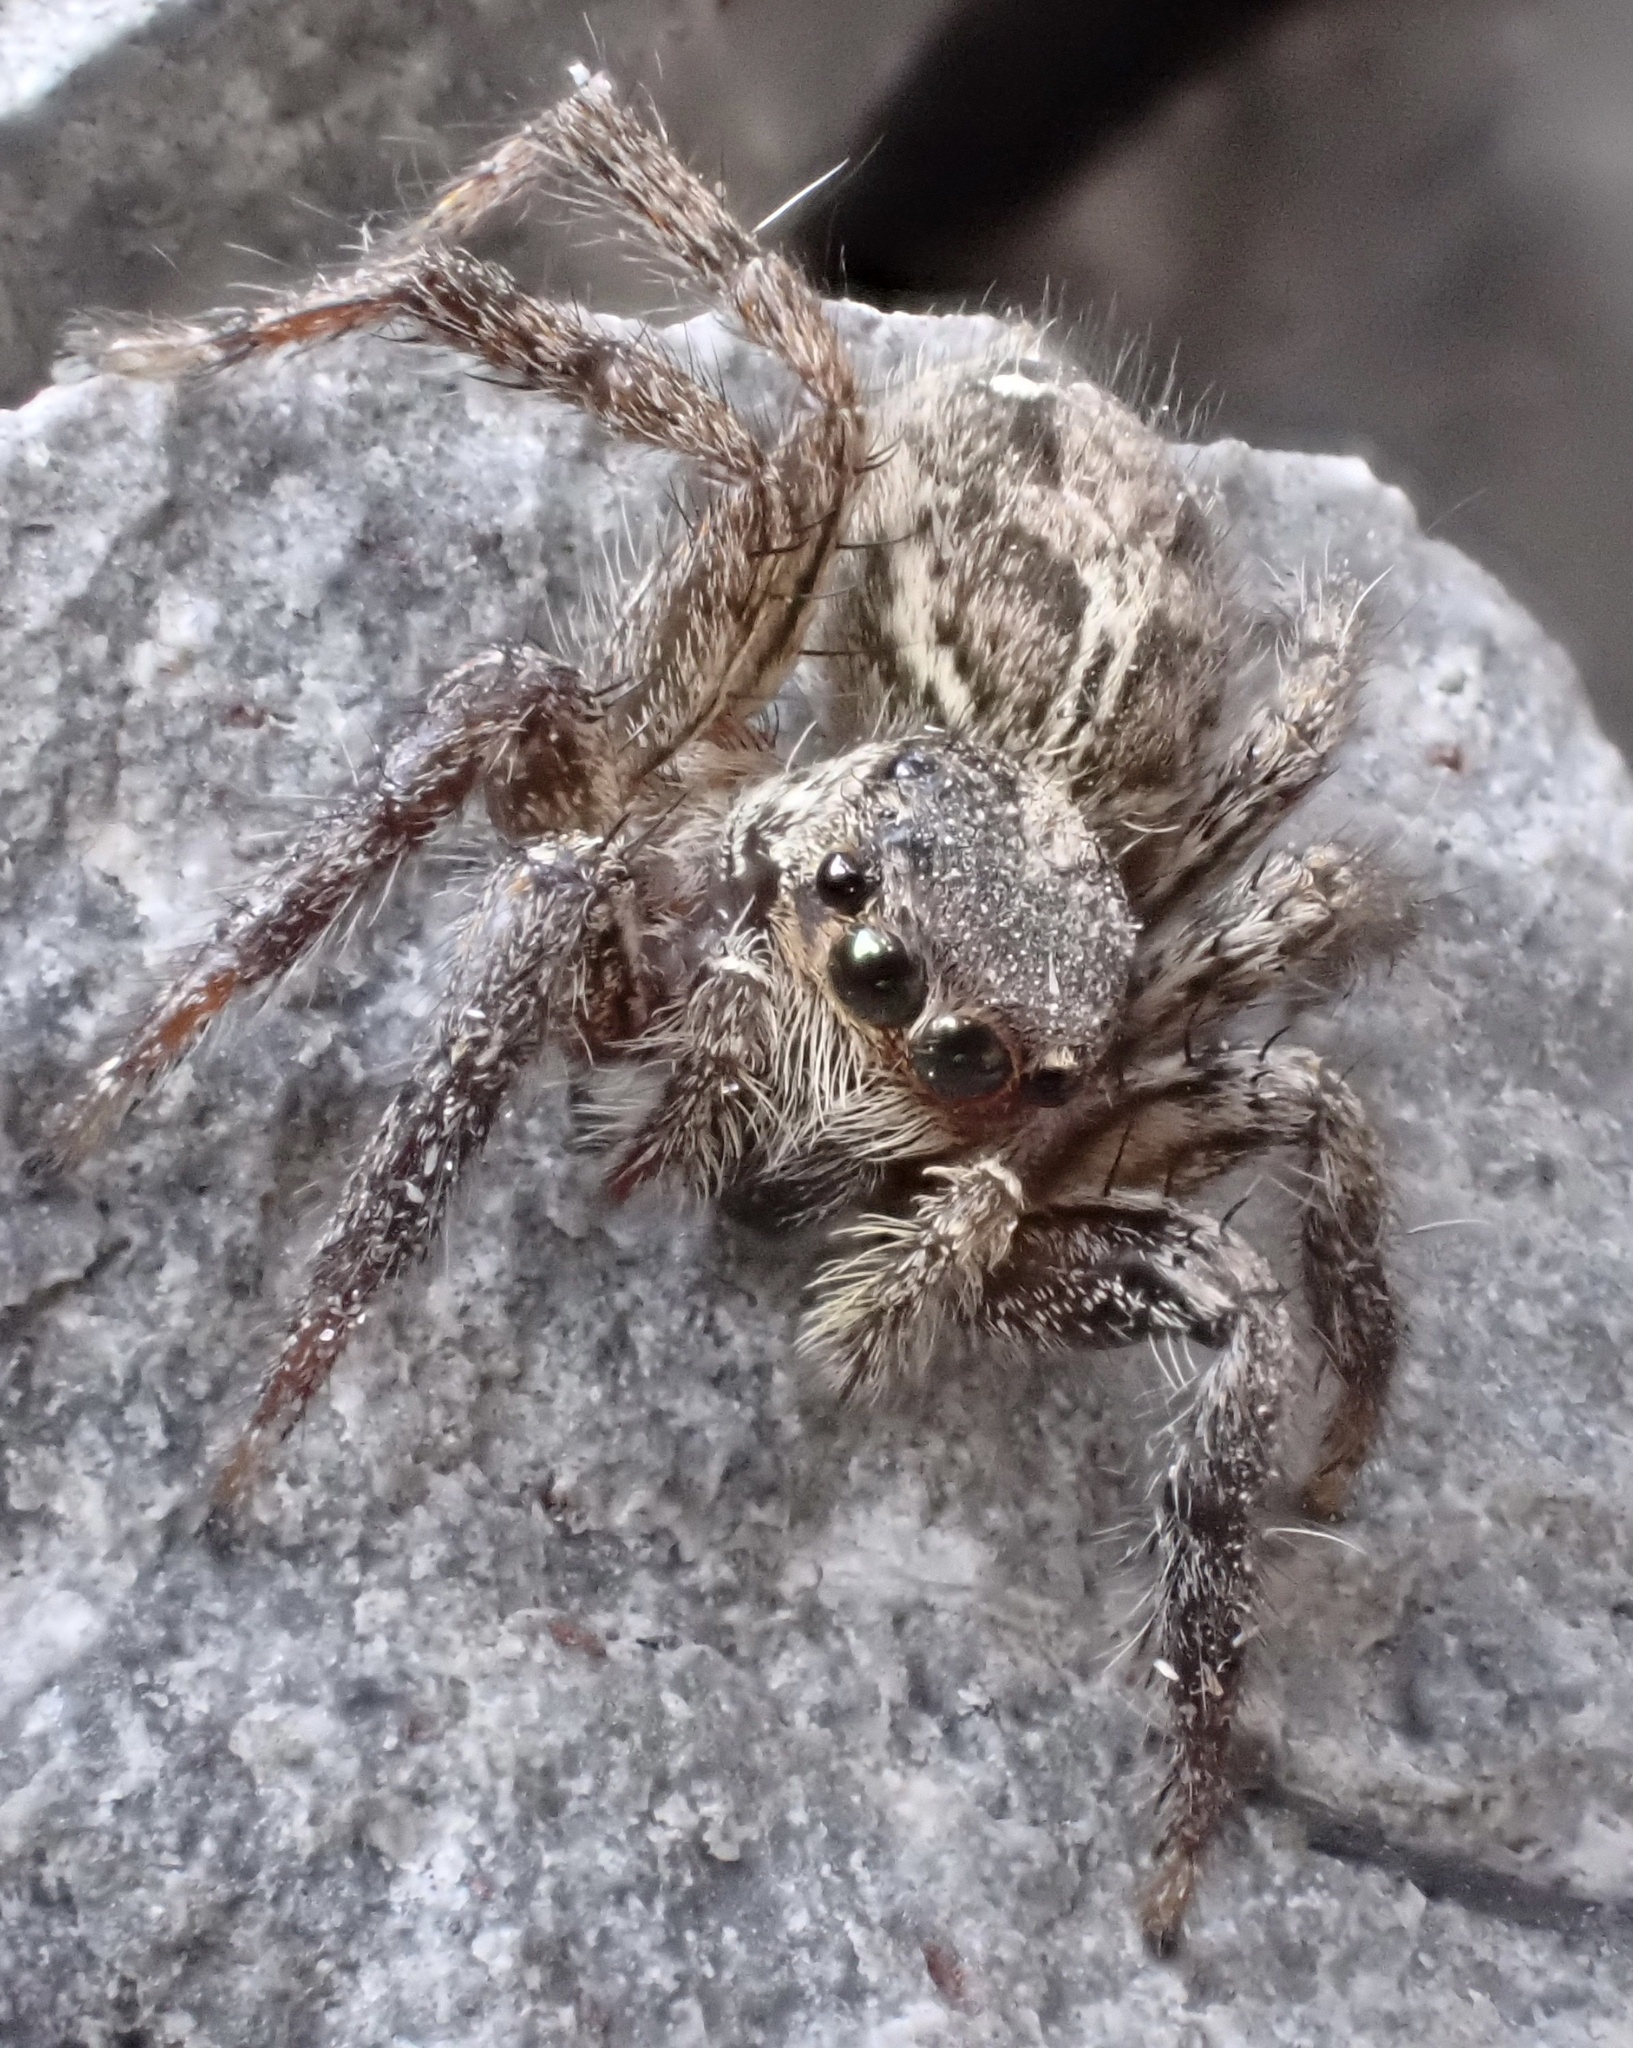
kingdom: Animalia
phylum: Arthropoda
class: Arachnida
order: Araneae
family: Salticidae
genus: Plexippus
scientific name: Plexippus paykulli
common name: Pantropical jumper
